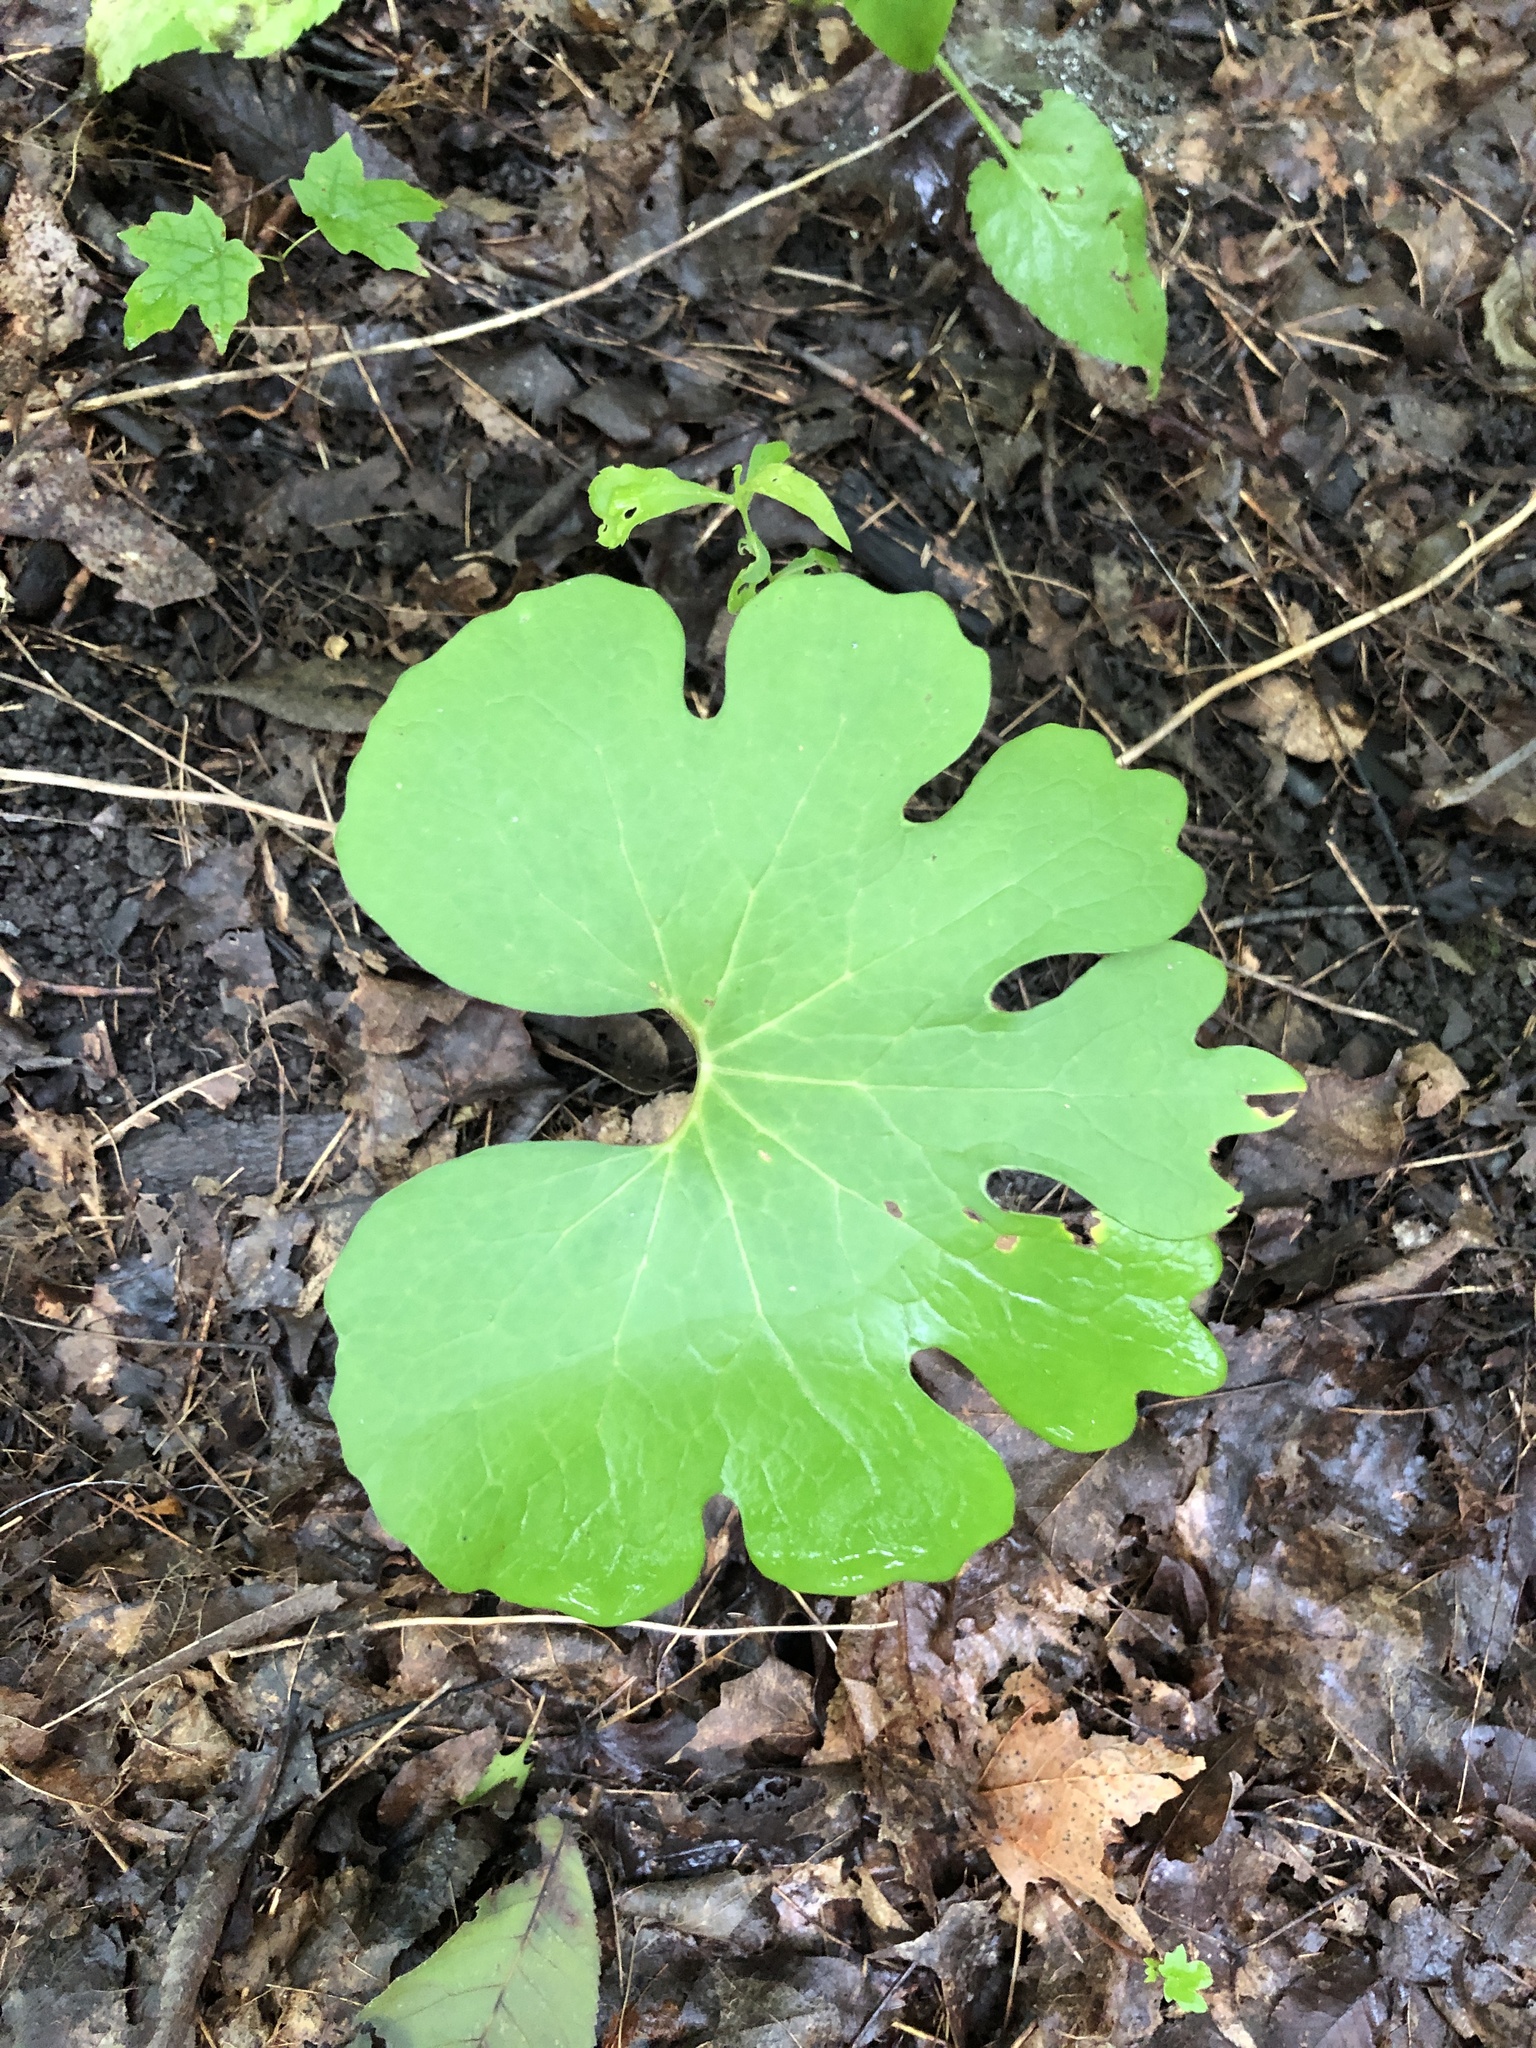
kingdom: Plantae
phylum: Tracheophyta
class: Magnoliopsida
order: Ranunculales
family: Papaveraceae
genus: Sanguinaria
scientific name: Sanguinaria canadensis
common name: Bloodroot
